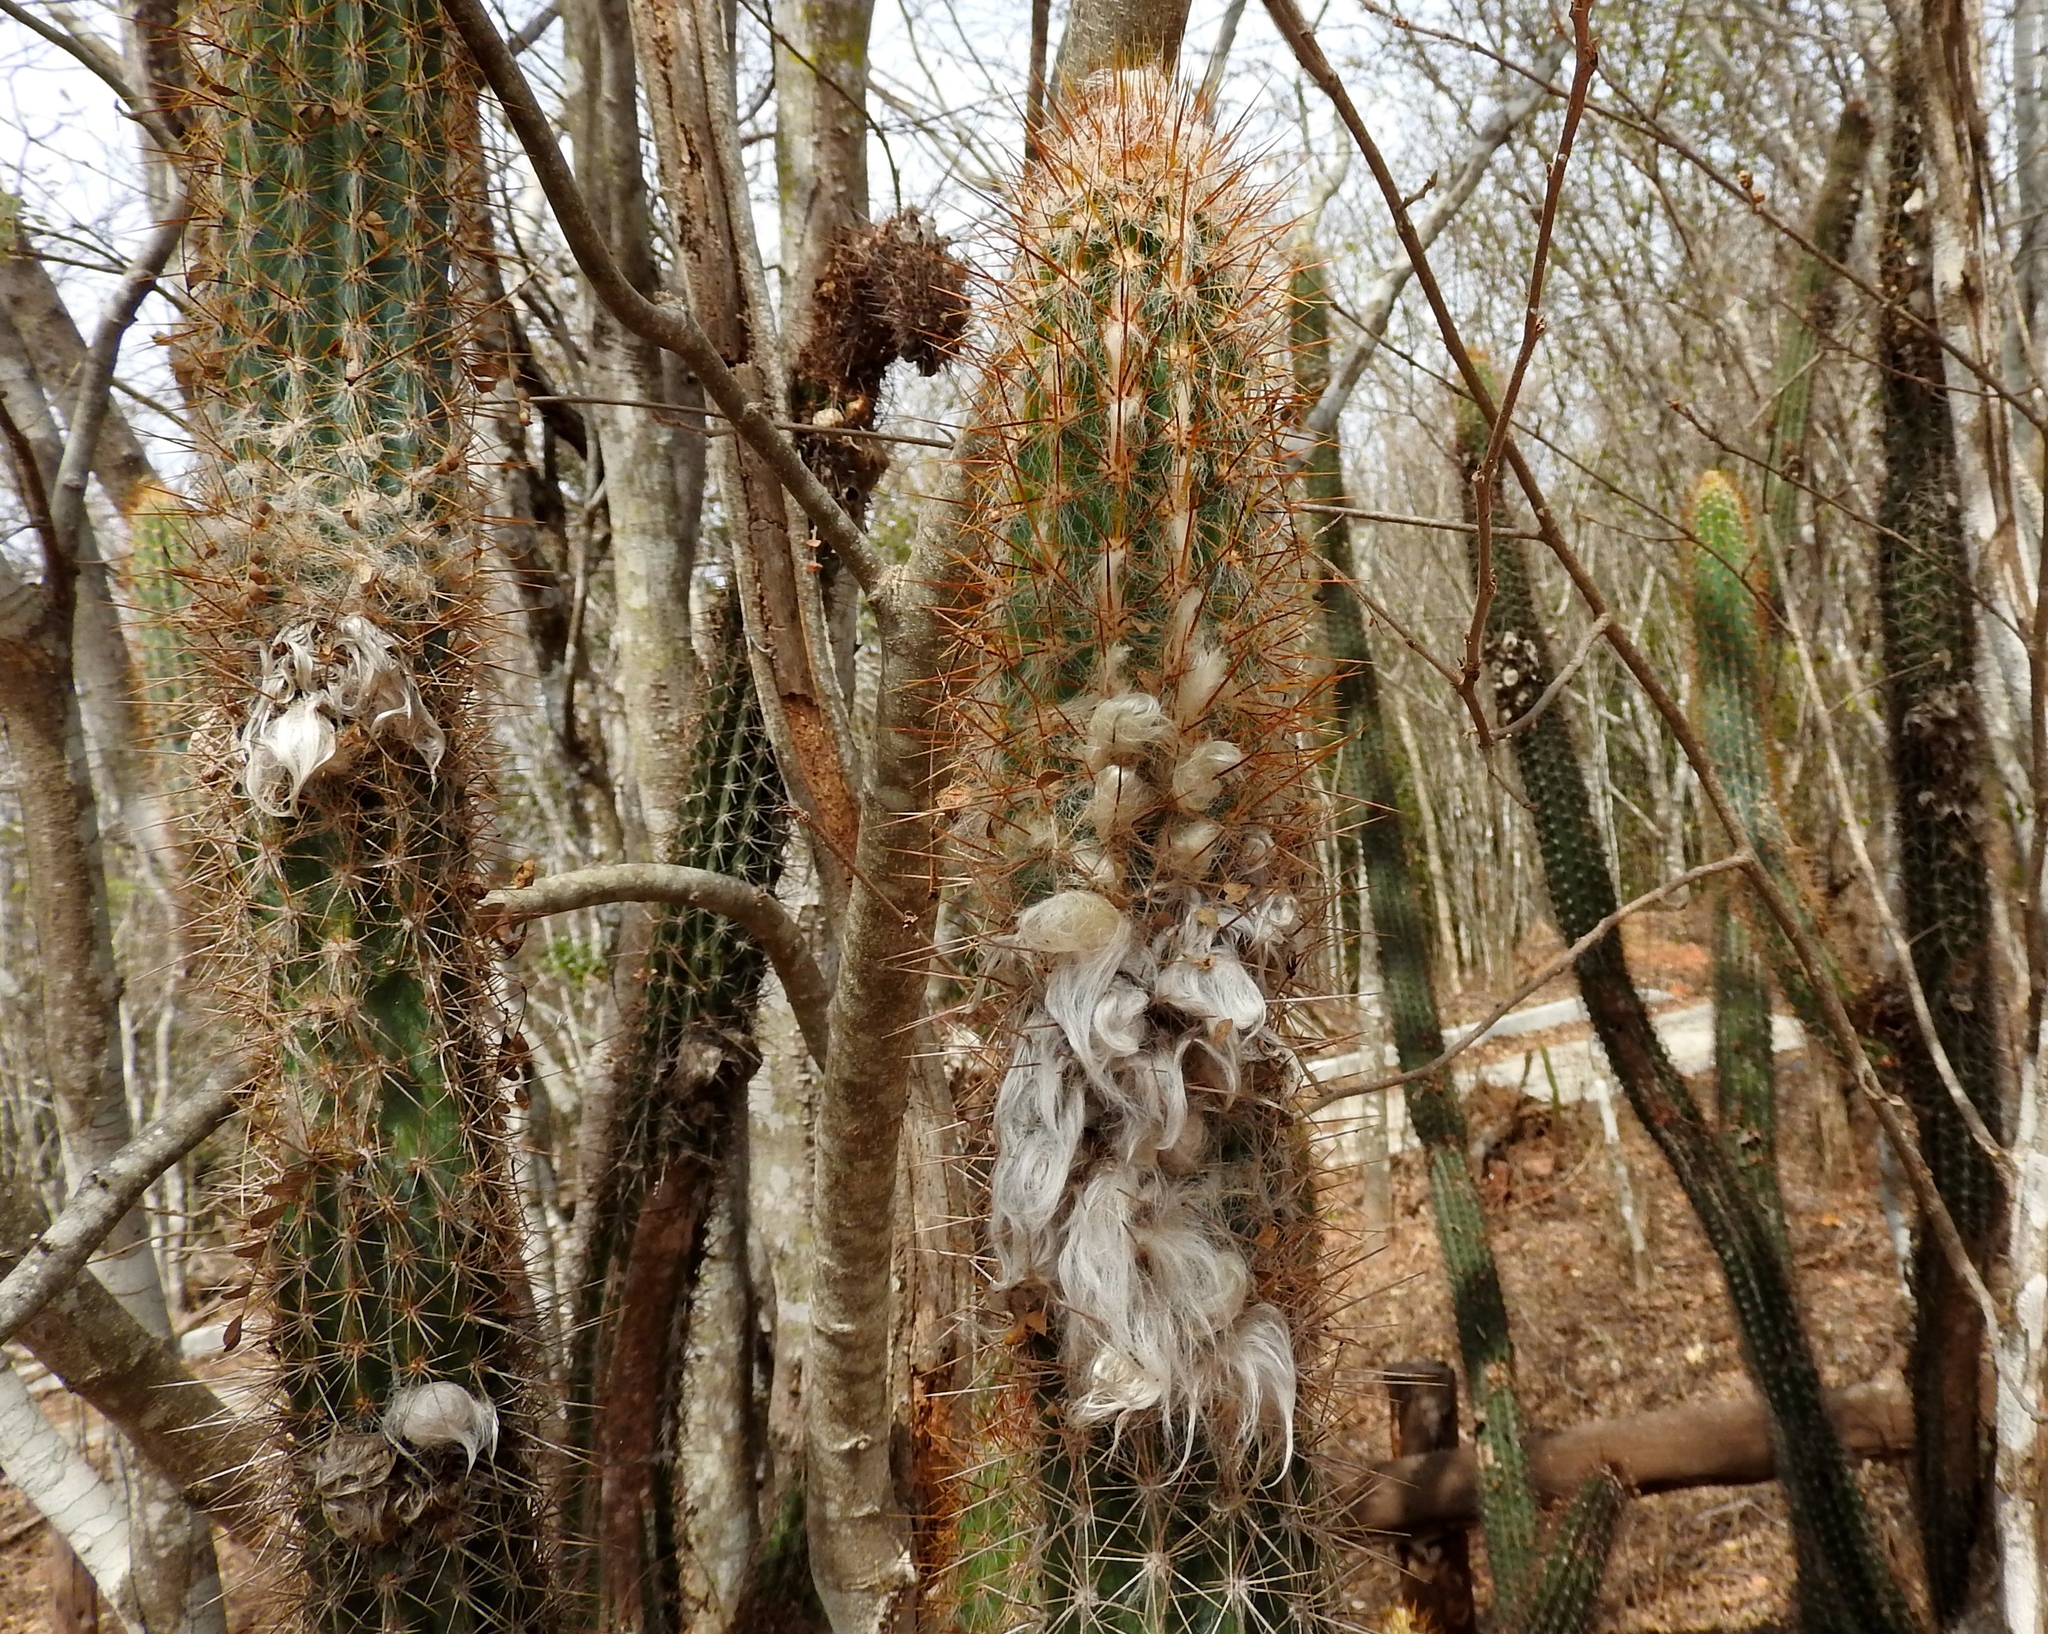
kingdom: Plantae
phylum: Tracheophyta
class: Magnoliopsida
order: Caryophyllales
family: Cactaceae
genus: Pilosocereus
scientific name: Pilosocereus purpusii
